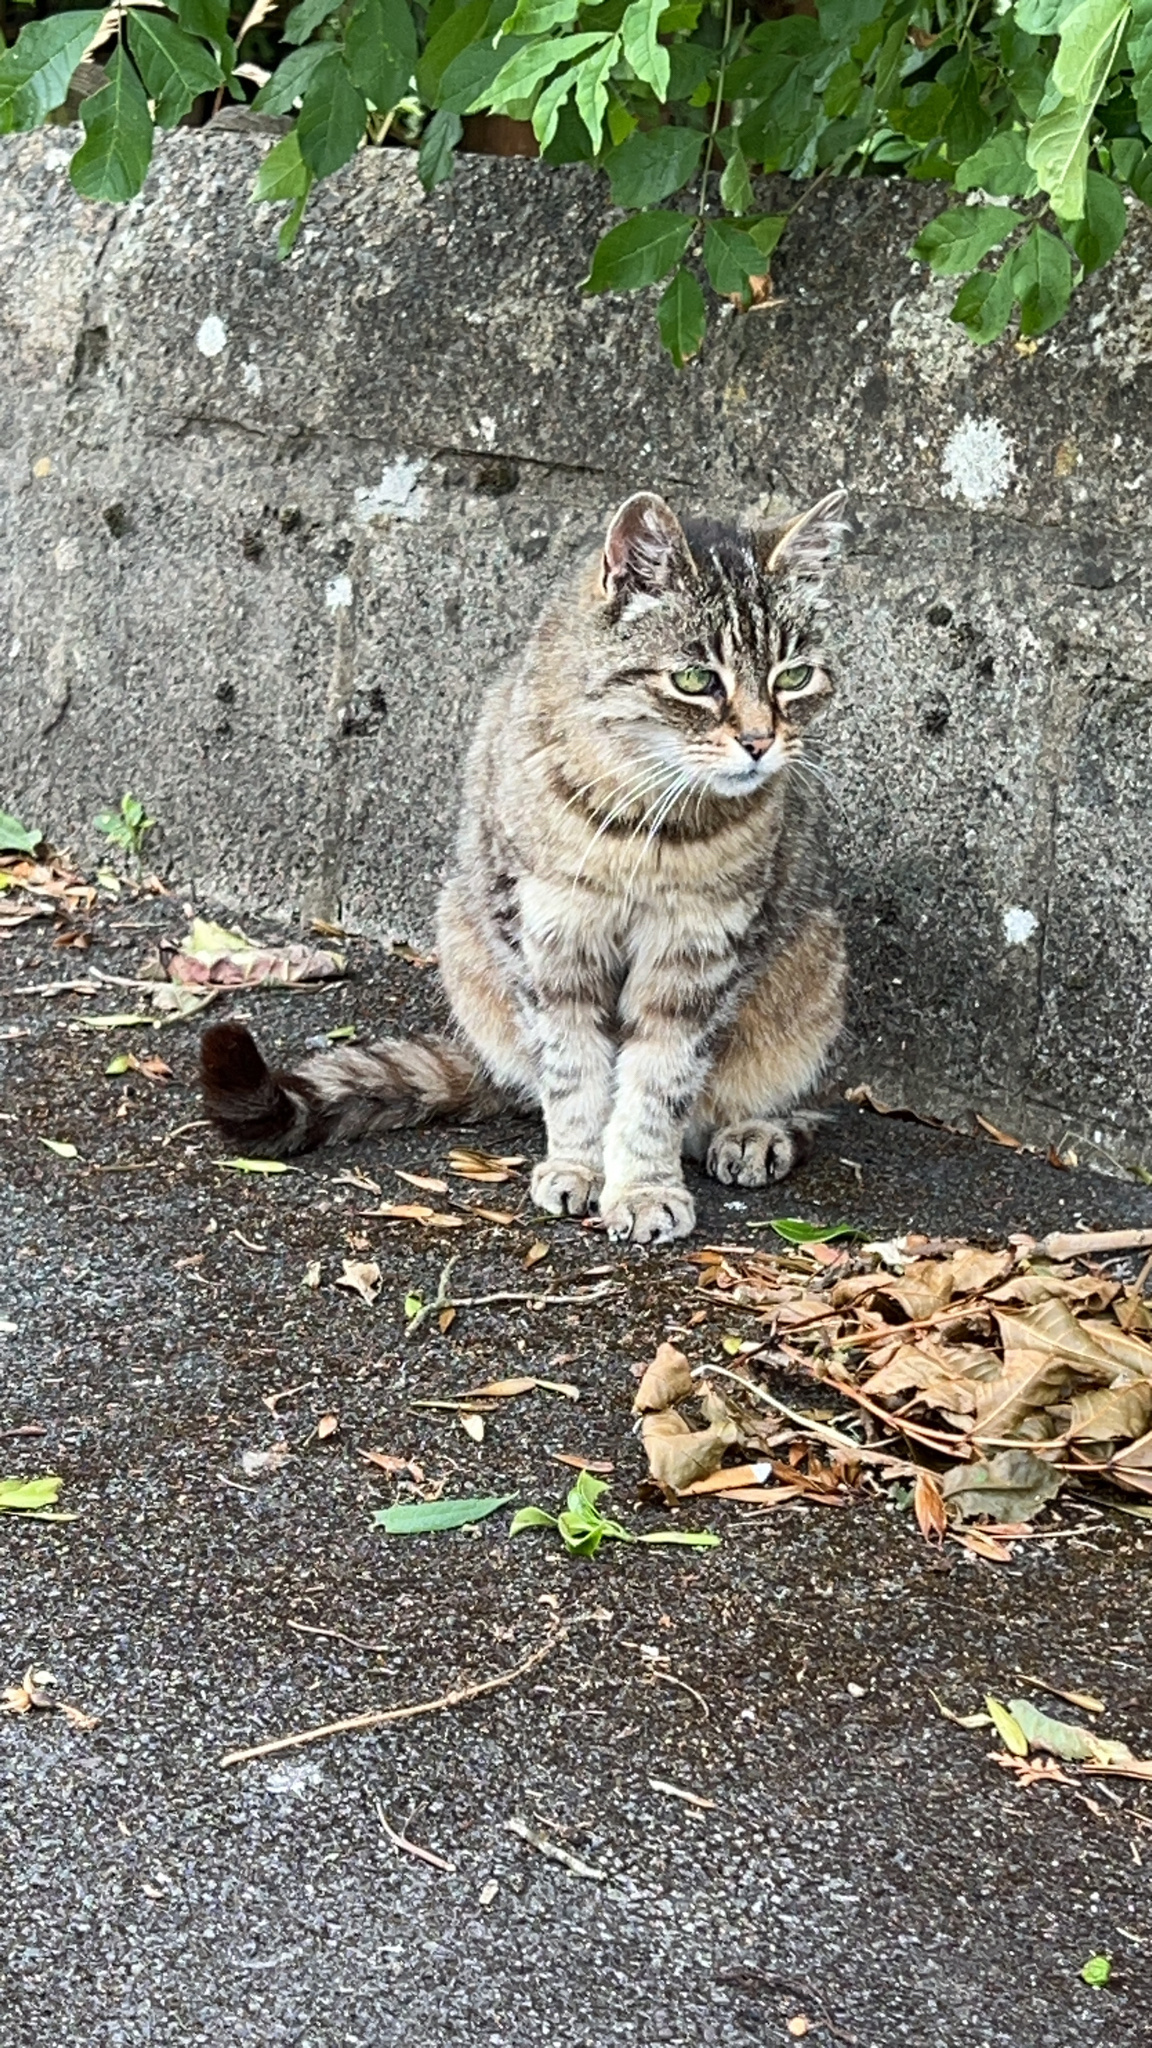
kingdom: Animalia
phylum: Chordata
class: Mammalia
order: Carnivora
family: Felidae
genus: Felis
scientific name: Felis catus
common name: Domestic cat
